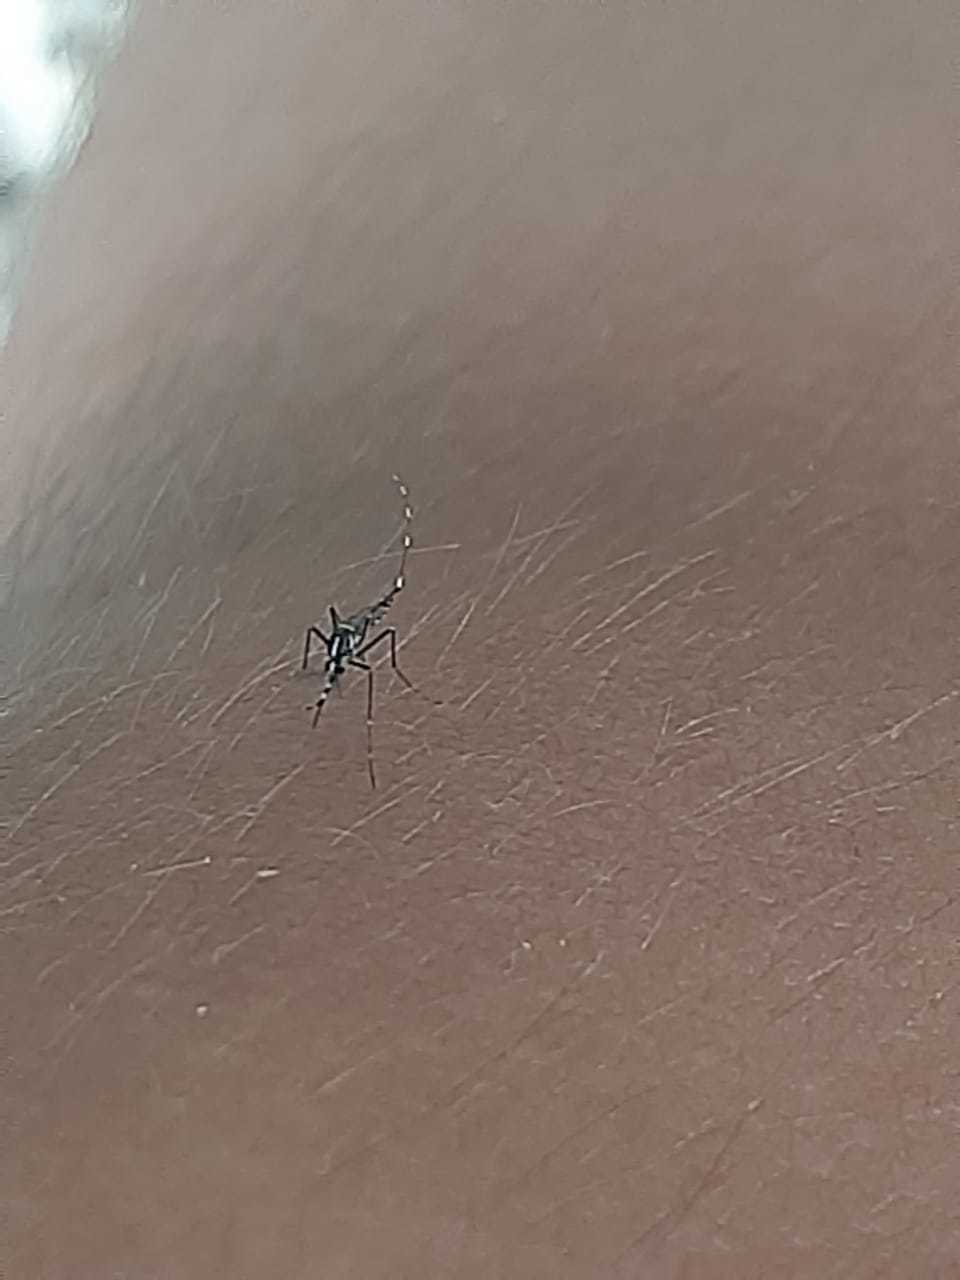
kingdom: Animalia
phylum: Arthropoda
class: Insecta
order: Diptera
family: Culicidae
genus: Aedes
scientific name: Aedes albopictus
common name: Tiger mosquito
